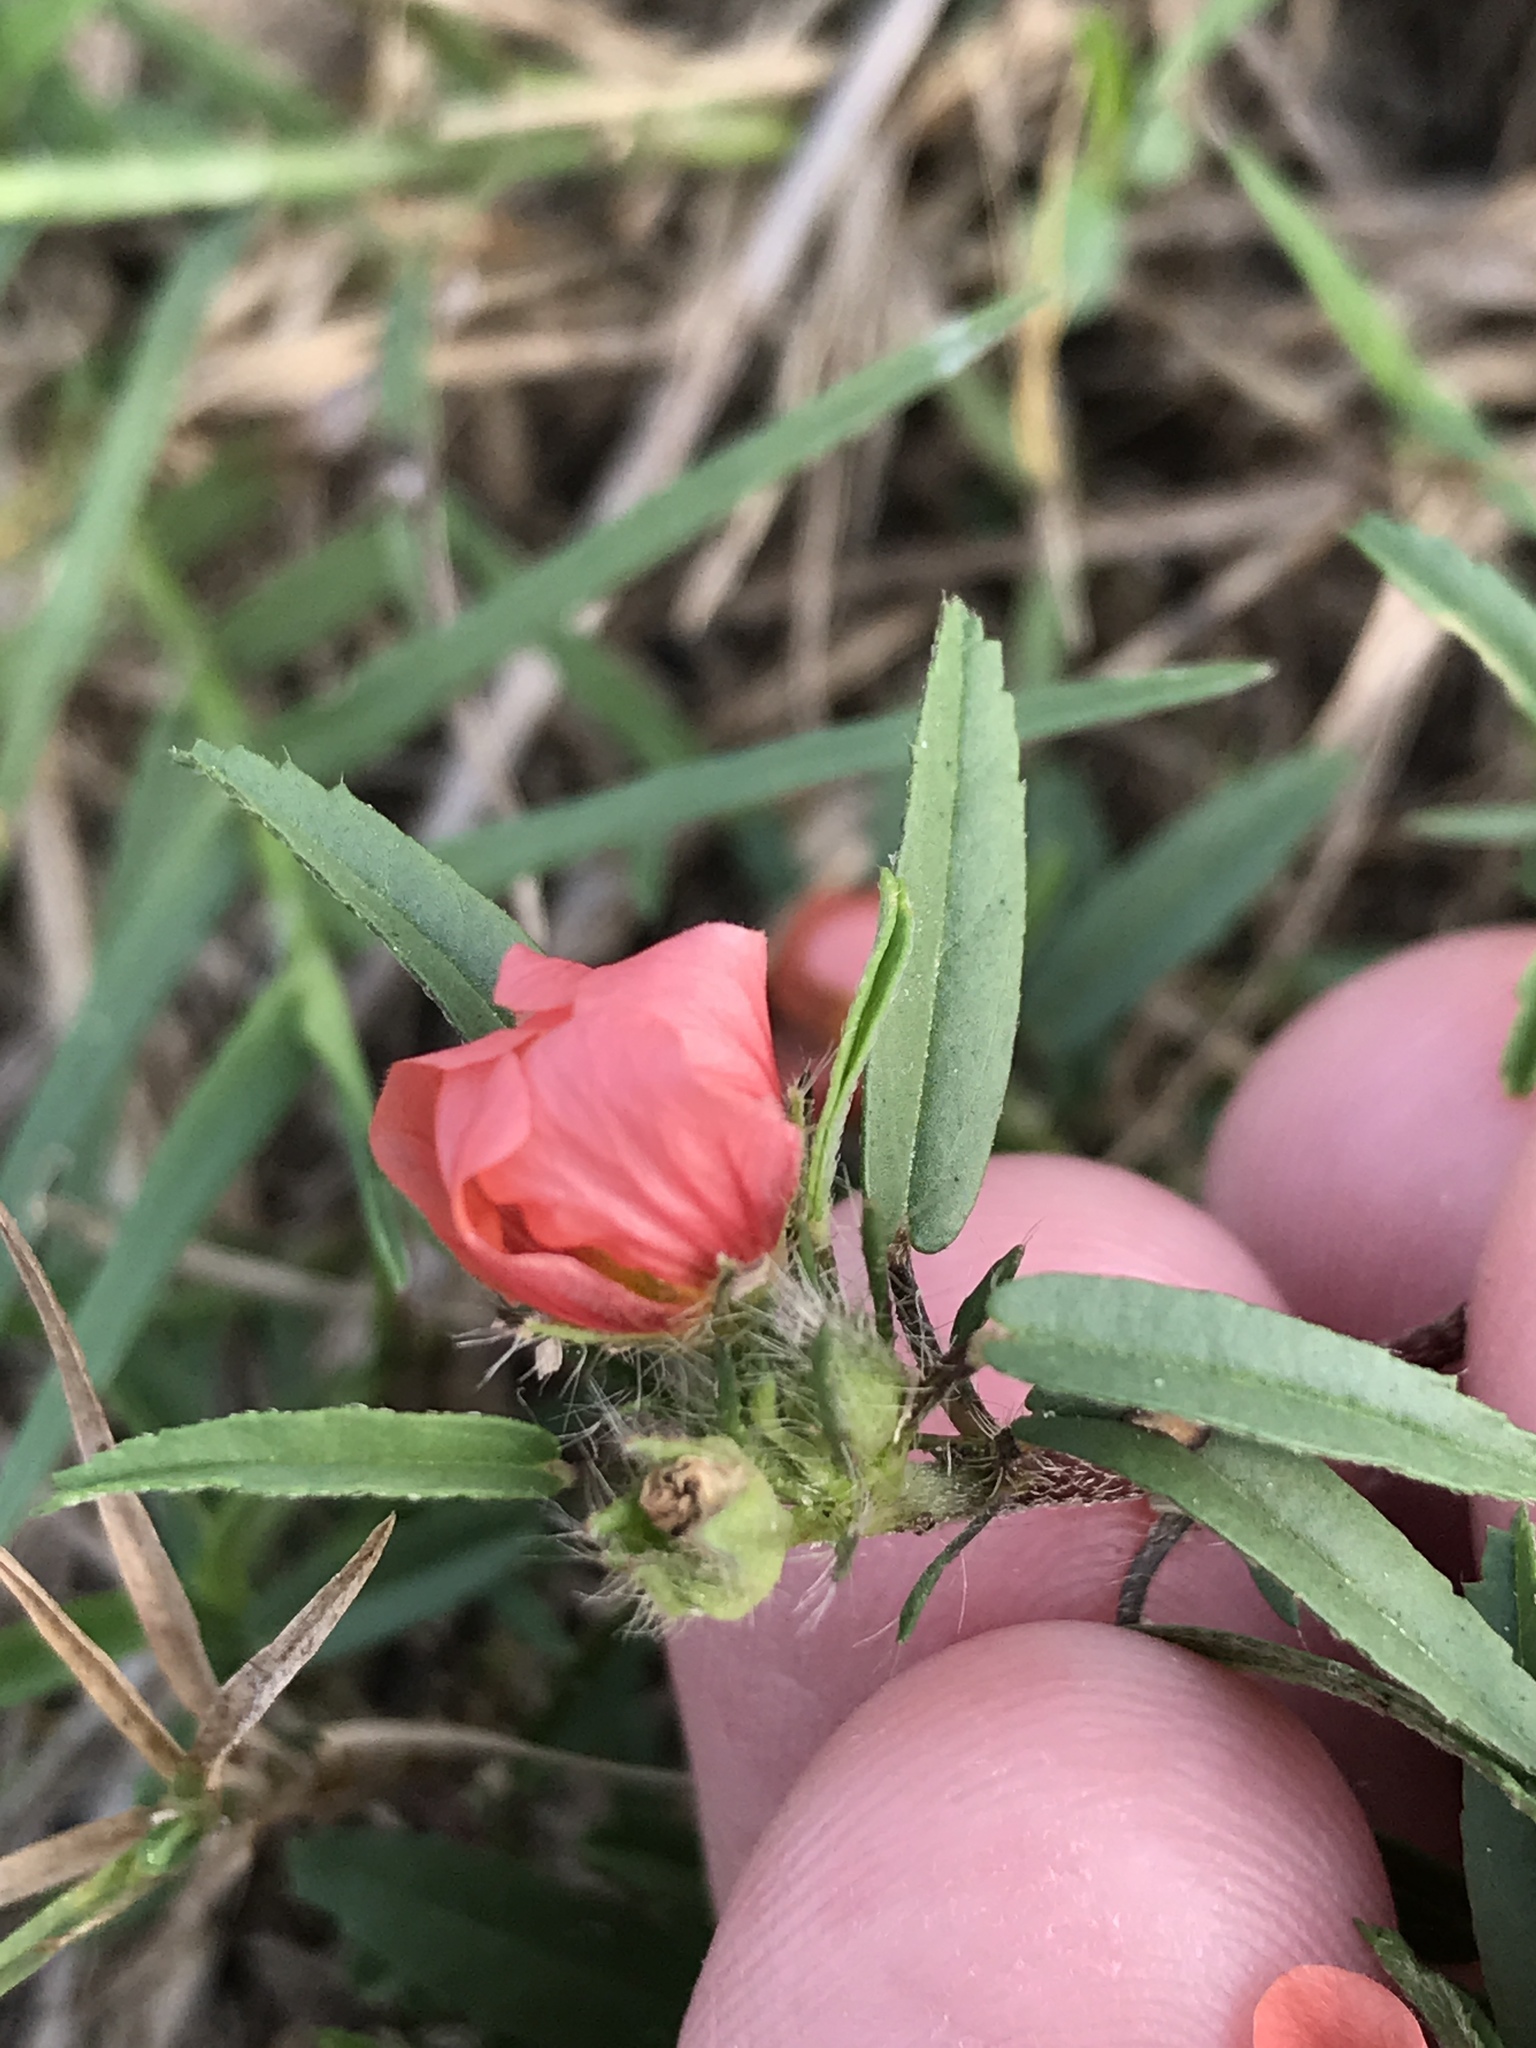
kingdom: Plantae
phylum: Tracheophyta
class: Magnoliopsida
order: Malvales
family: Malvaceae
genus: Sida
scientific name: Sida ciliaris
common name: Bracted fanpetals
